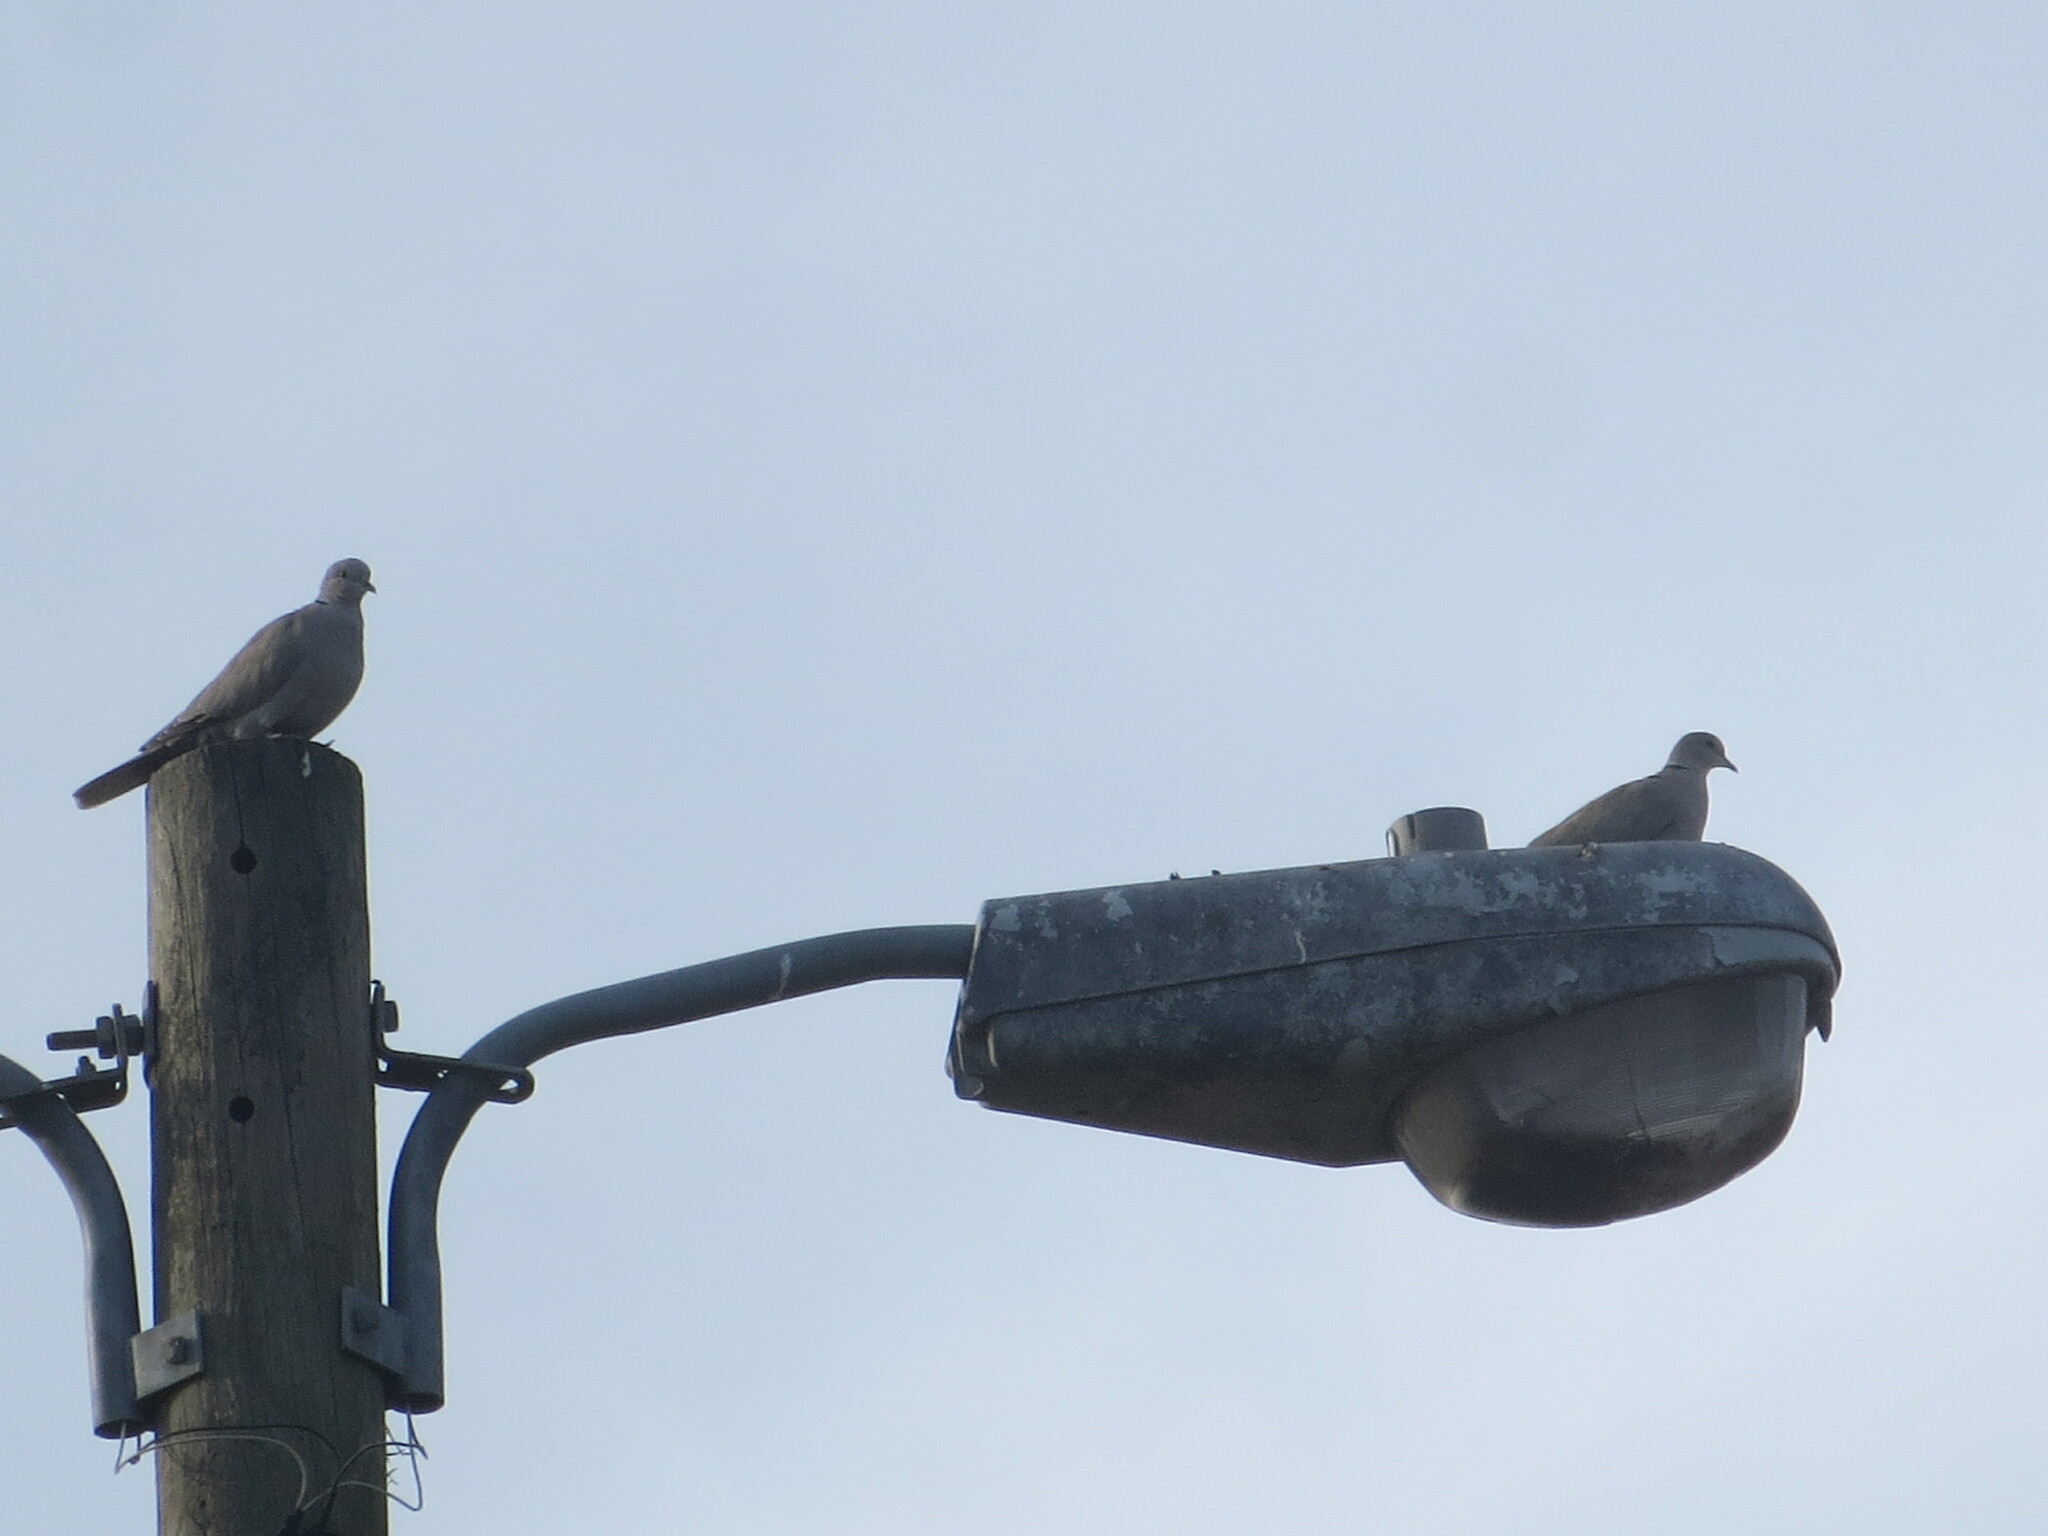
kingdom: Animalia
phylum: Chordata
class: Aves
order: Columbiformes
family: Columbidae
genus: Streptopelia
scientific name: Streptopelia decaocto
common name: Eurasian collared dove
